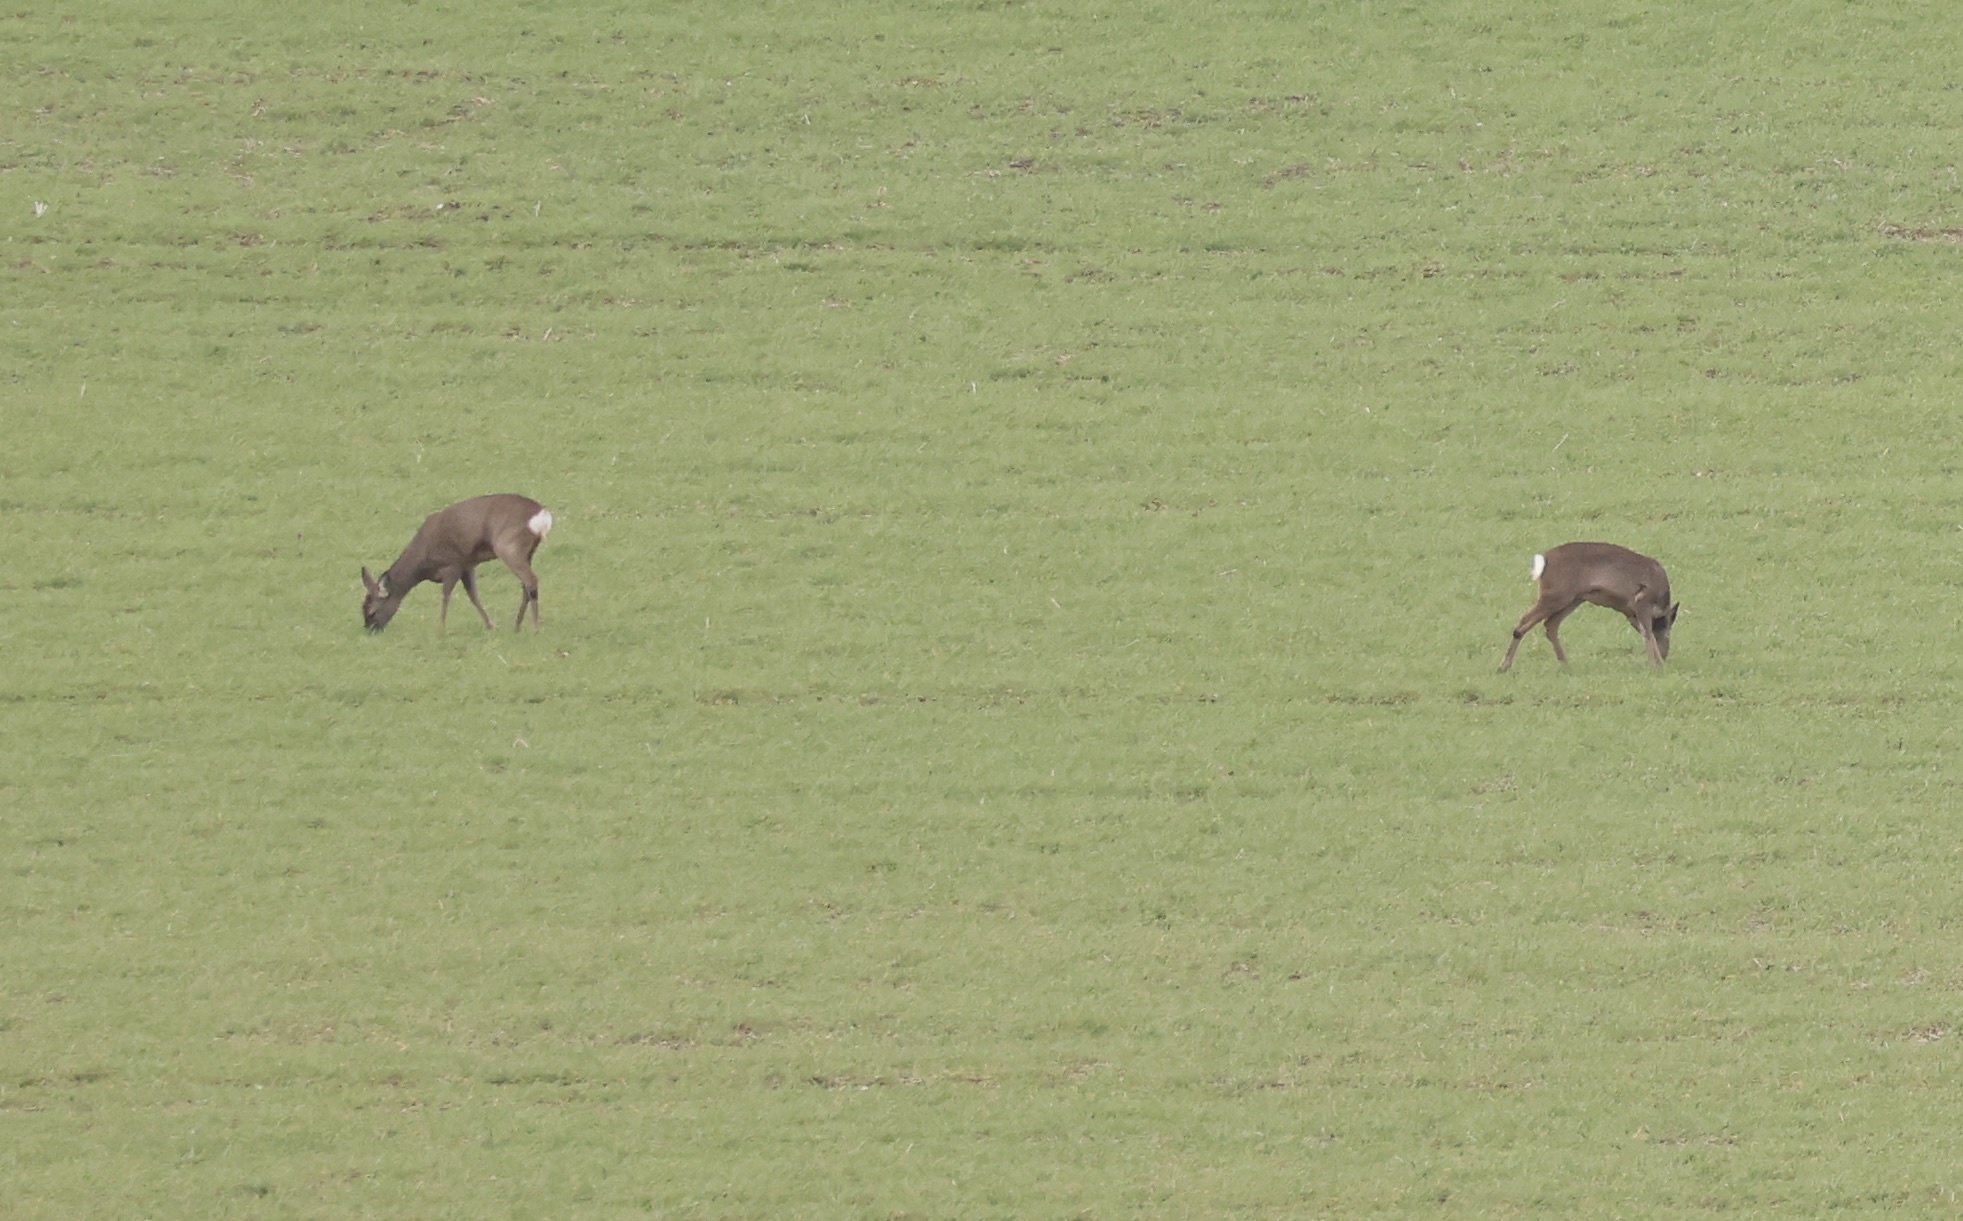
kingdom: Animalia
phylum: Chordata
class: Mammalia
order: Artiodactyla
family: Cervidae
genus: Capreolus
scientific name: Capreolus capreolus
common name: Western roe deer
